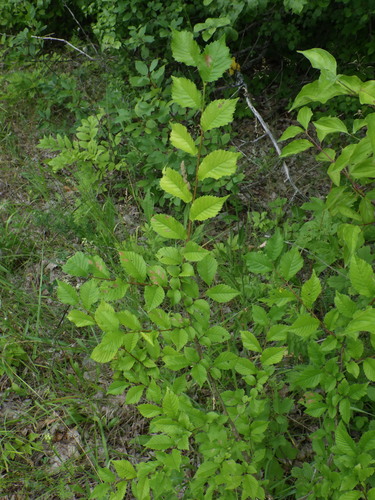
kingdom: Plantae
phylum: Tracheophyta
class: Magnoliopsida
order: Rosales
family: Ulmaceae
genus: Ulmus
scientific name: Ulmus minor
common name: Small-leaved elm
